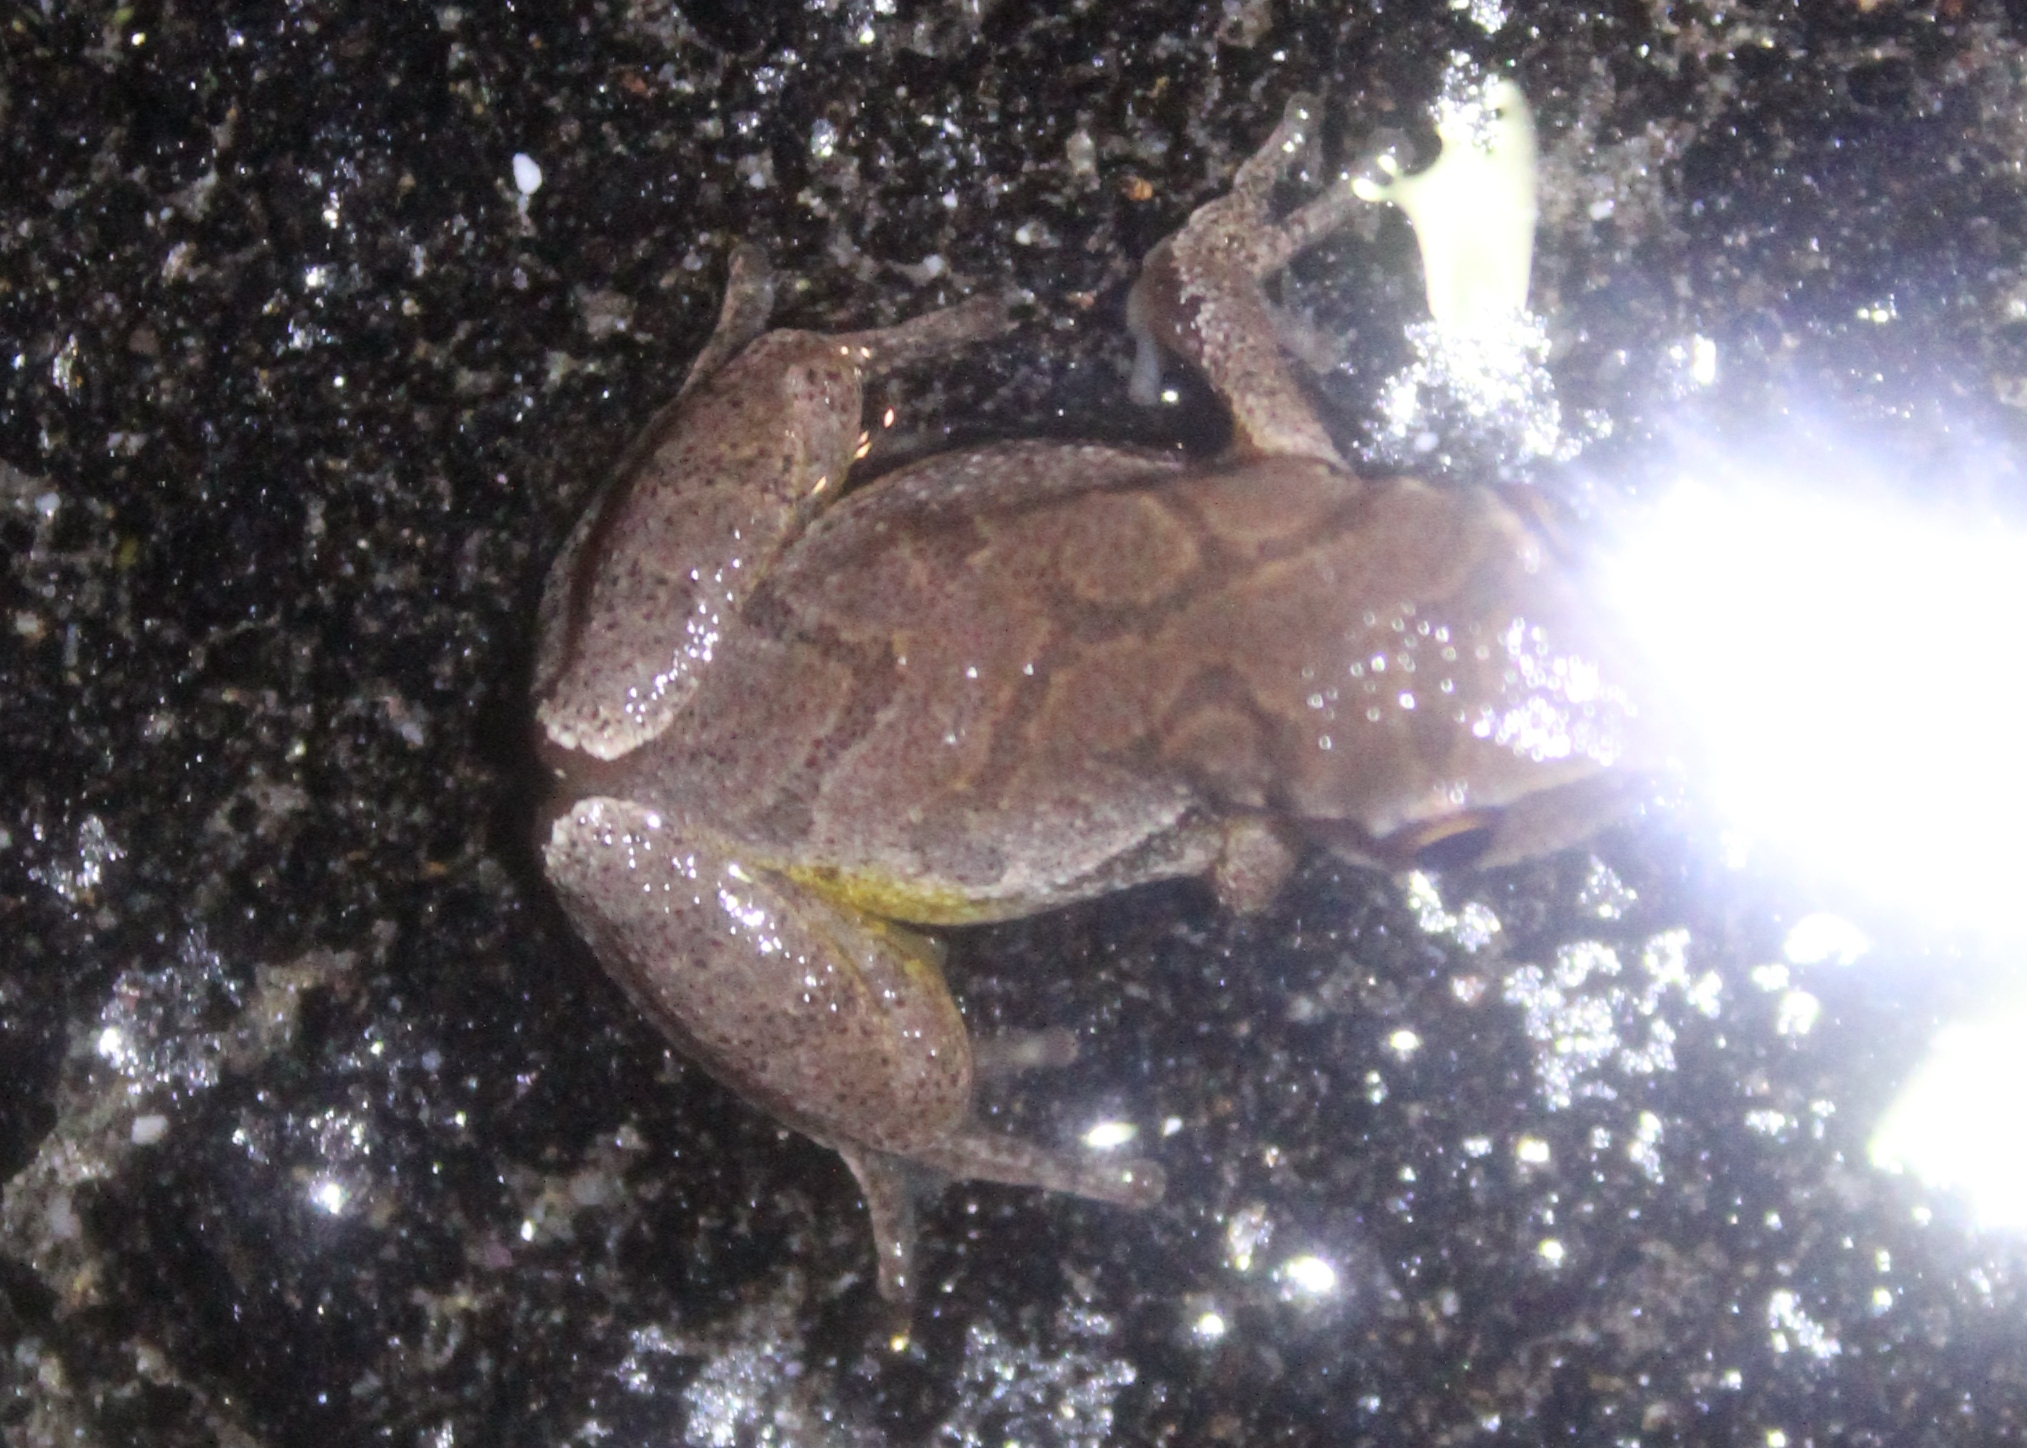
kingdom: Animalia
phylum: Chordata
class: Amphibia
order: Anura
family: Hylidae
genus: Pseudacris
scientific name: Pseudacris crucifer
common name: Spring peeper
